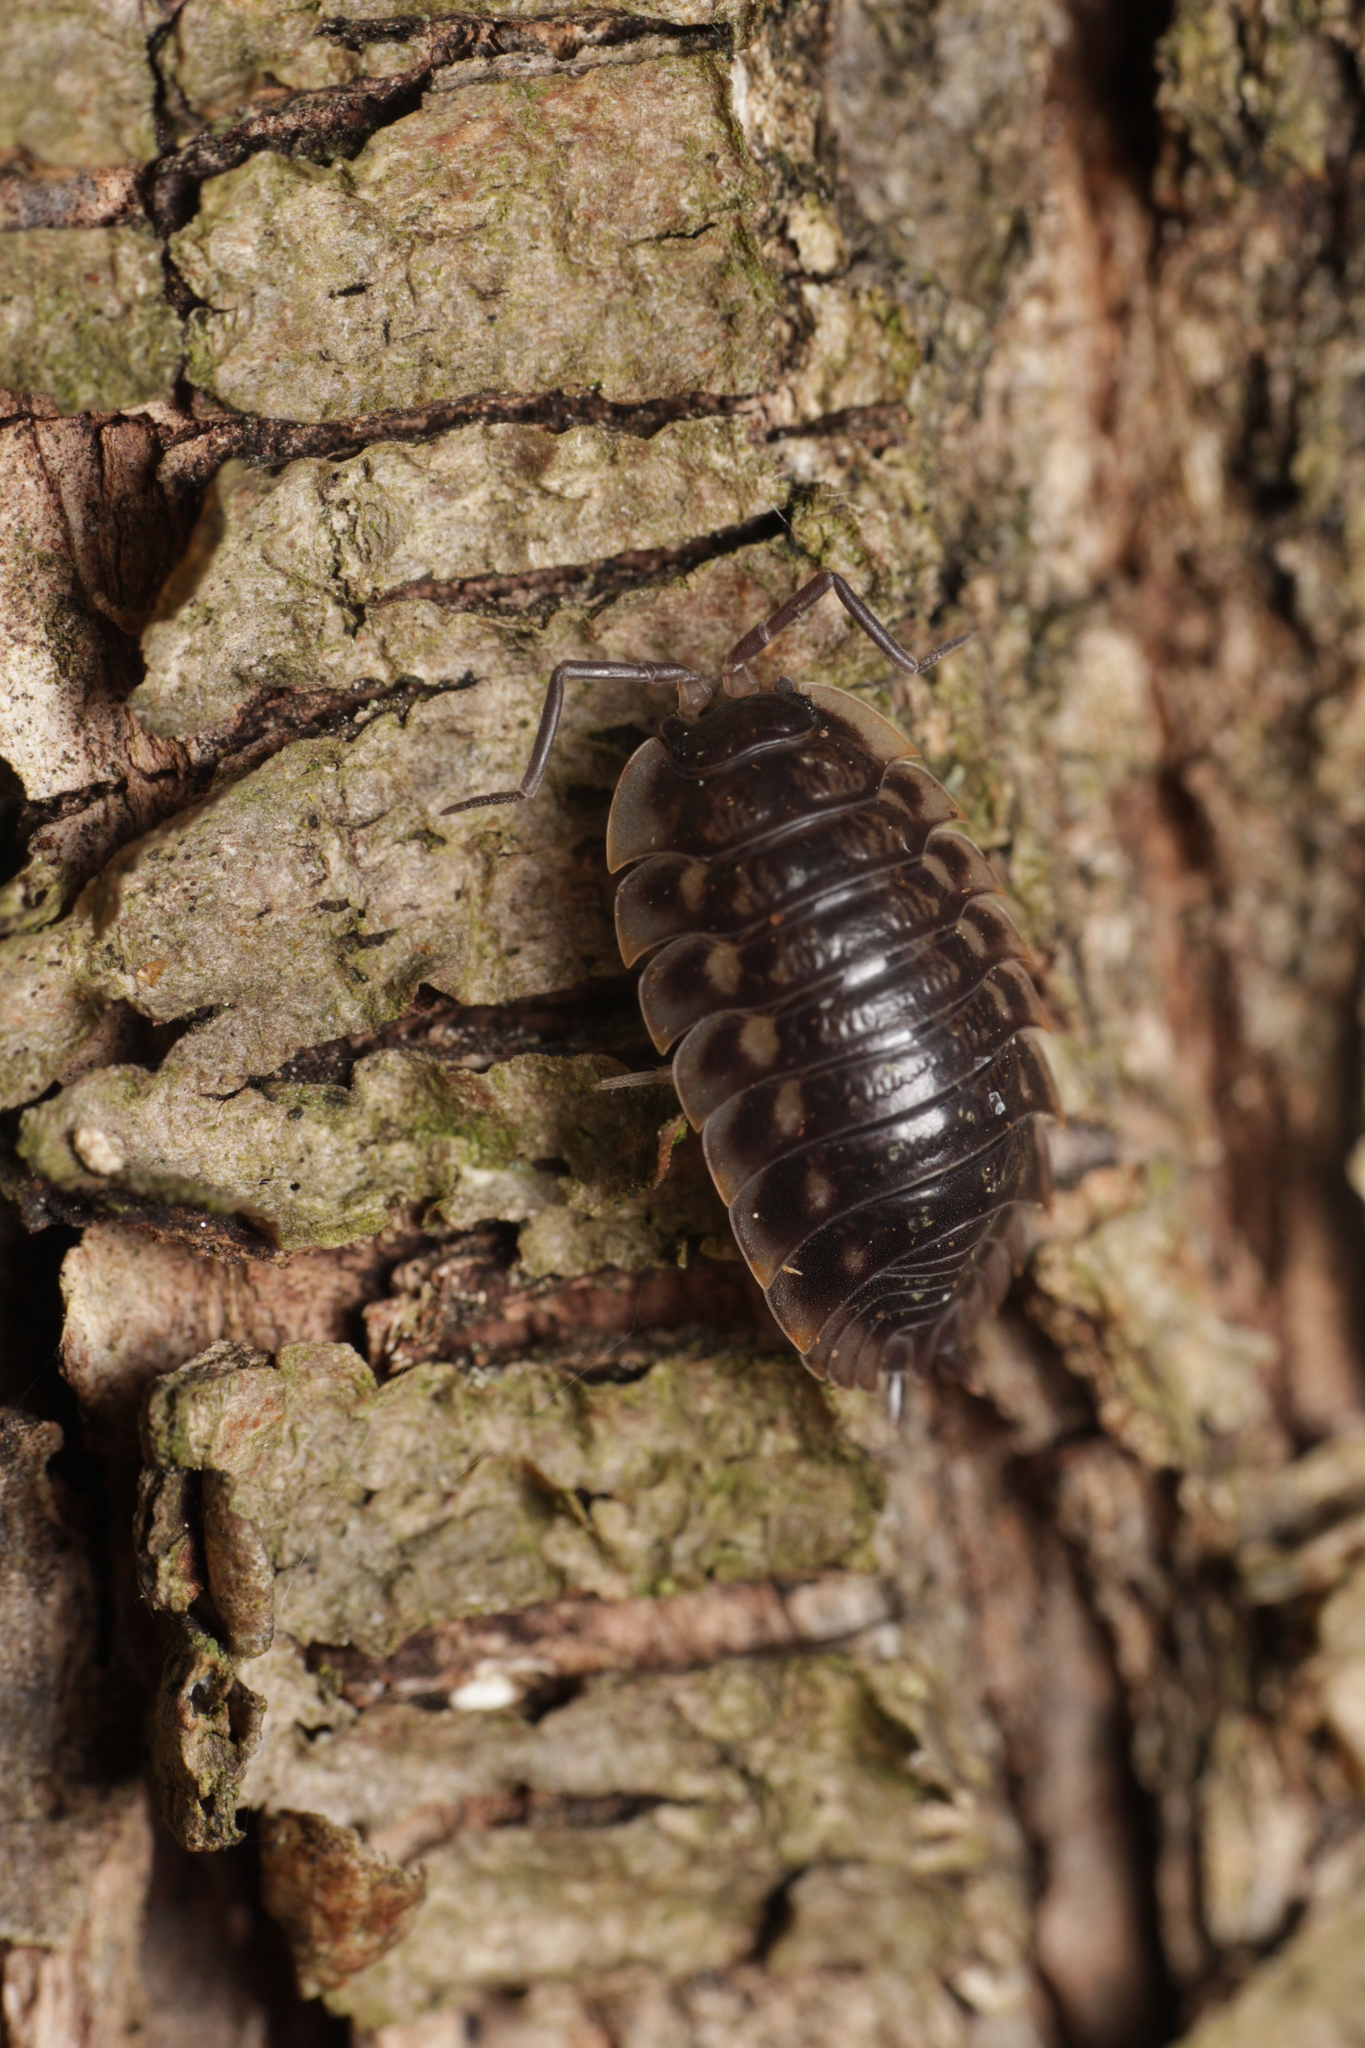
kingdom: Animalia
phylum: Arthropoda
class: Malacostraca
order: Isopoda
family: Oniscidae
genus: Oniscus
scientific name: Oniscus asellus
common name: Common shiny woodlouse
